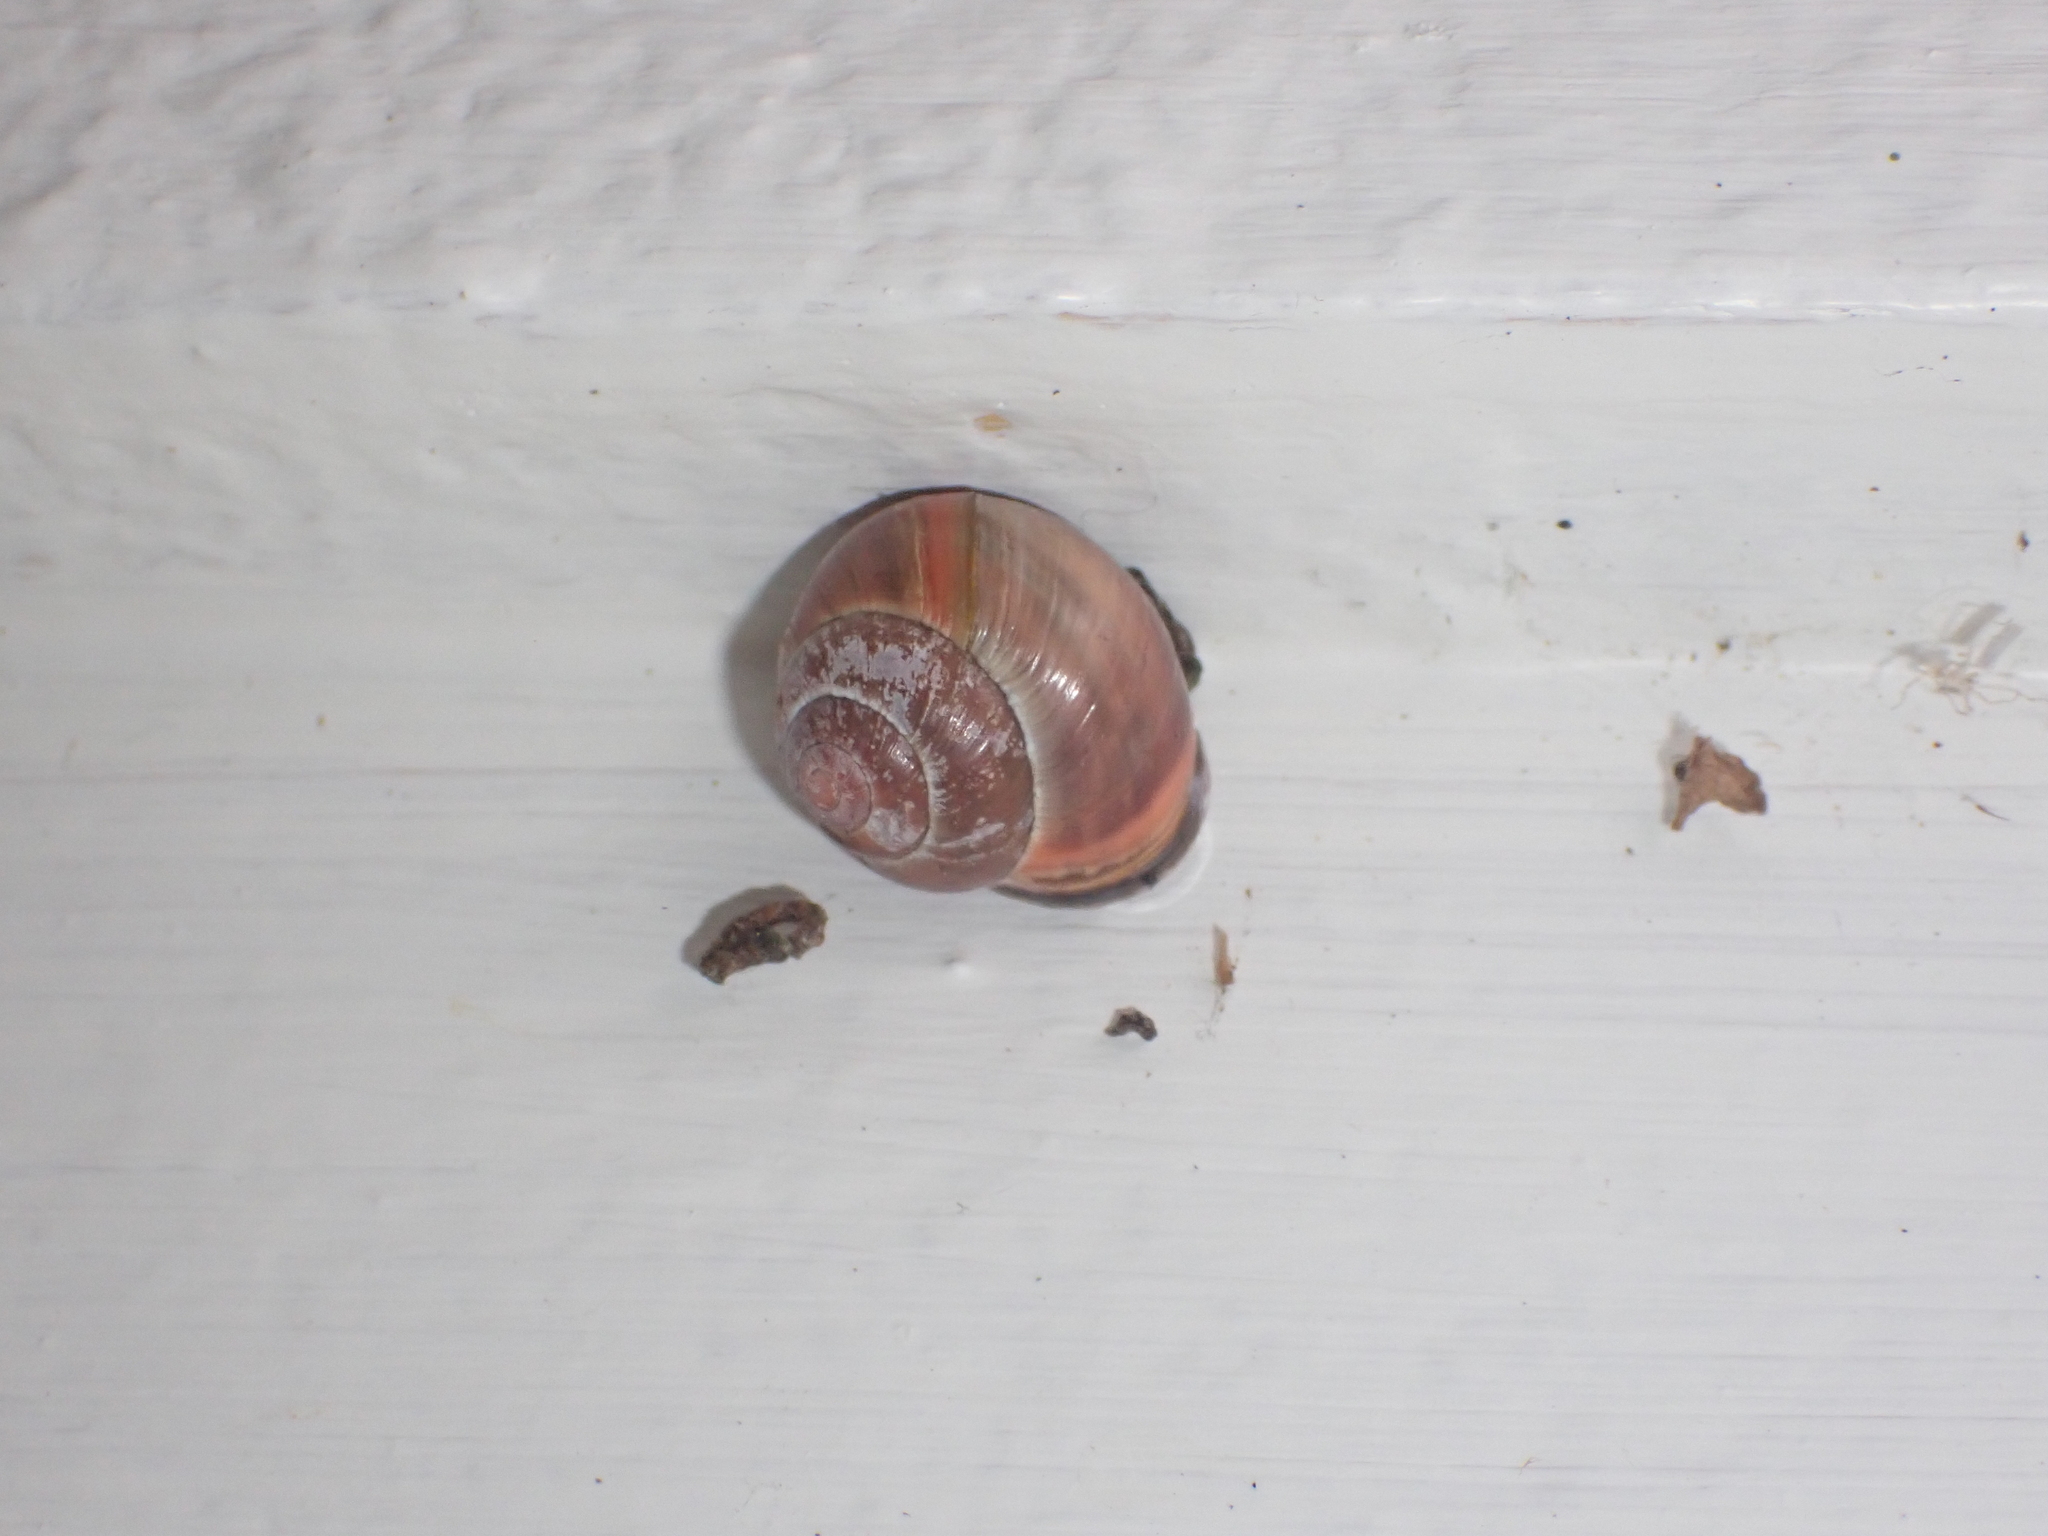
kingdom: Animalia
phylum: Mollusca
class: Gastropoda
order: Stylommatophora
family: Helicidae
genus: Cepaea
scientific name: Cepaea nemoralis
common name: Grovesnail
